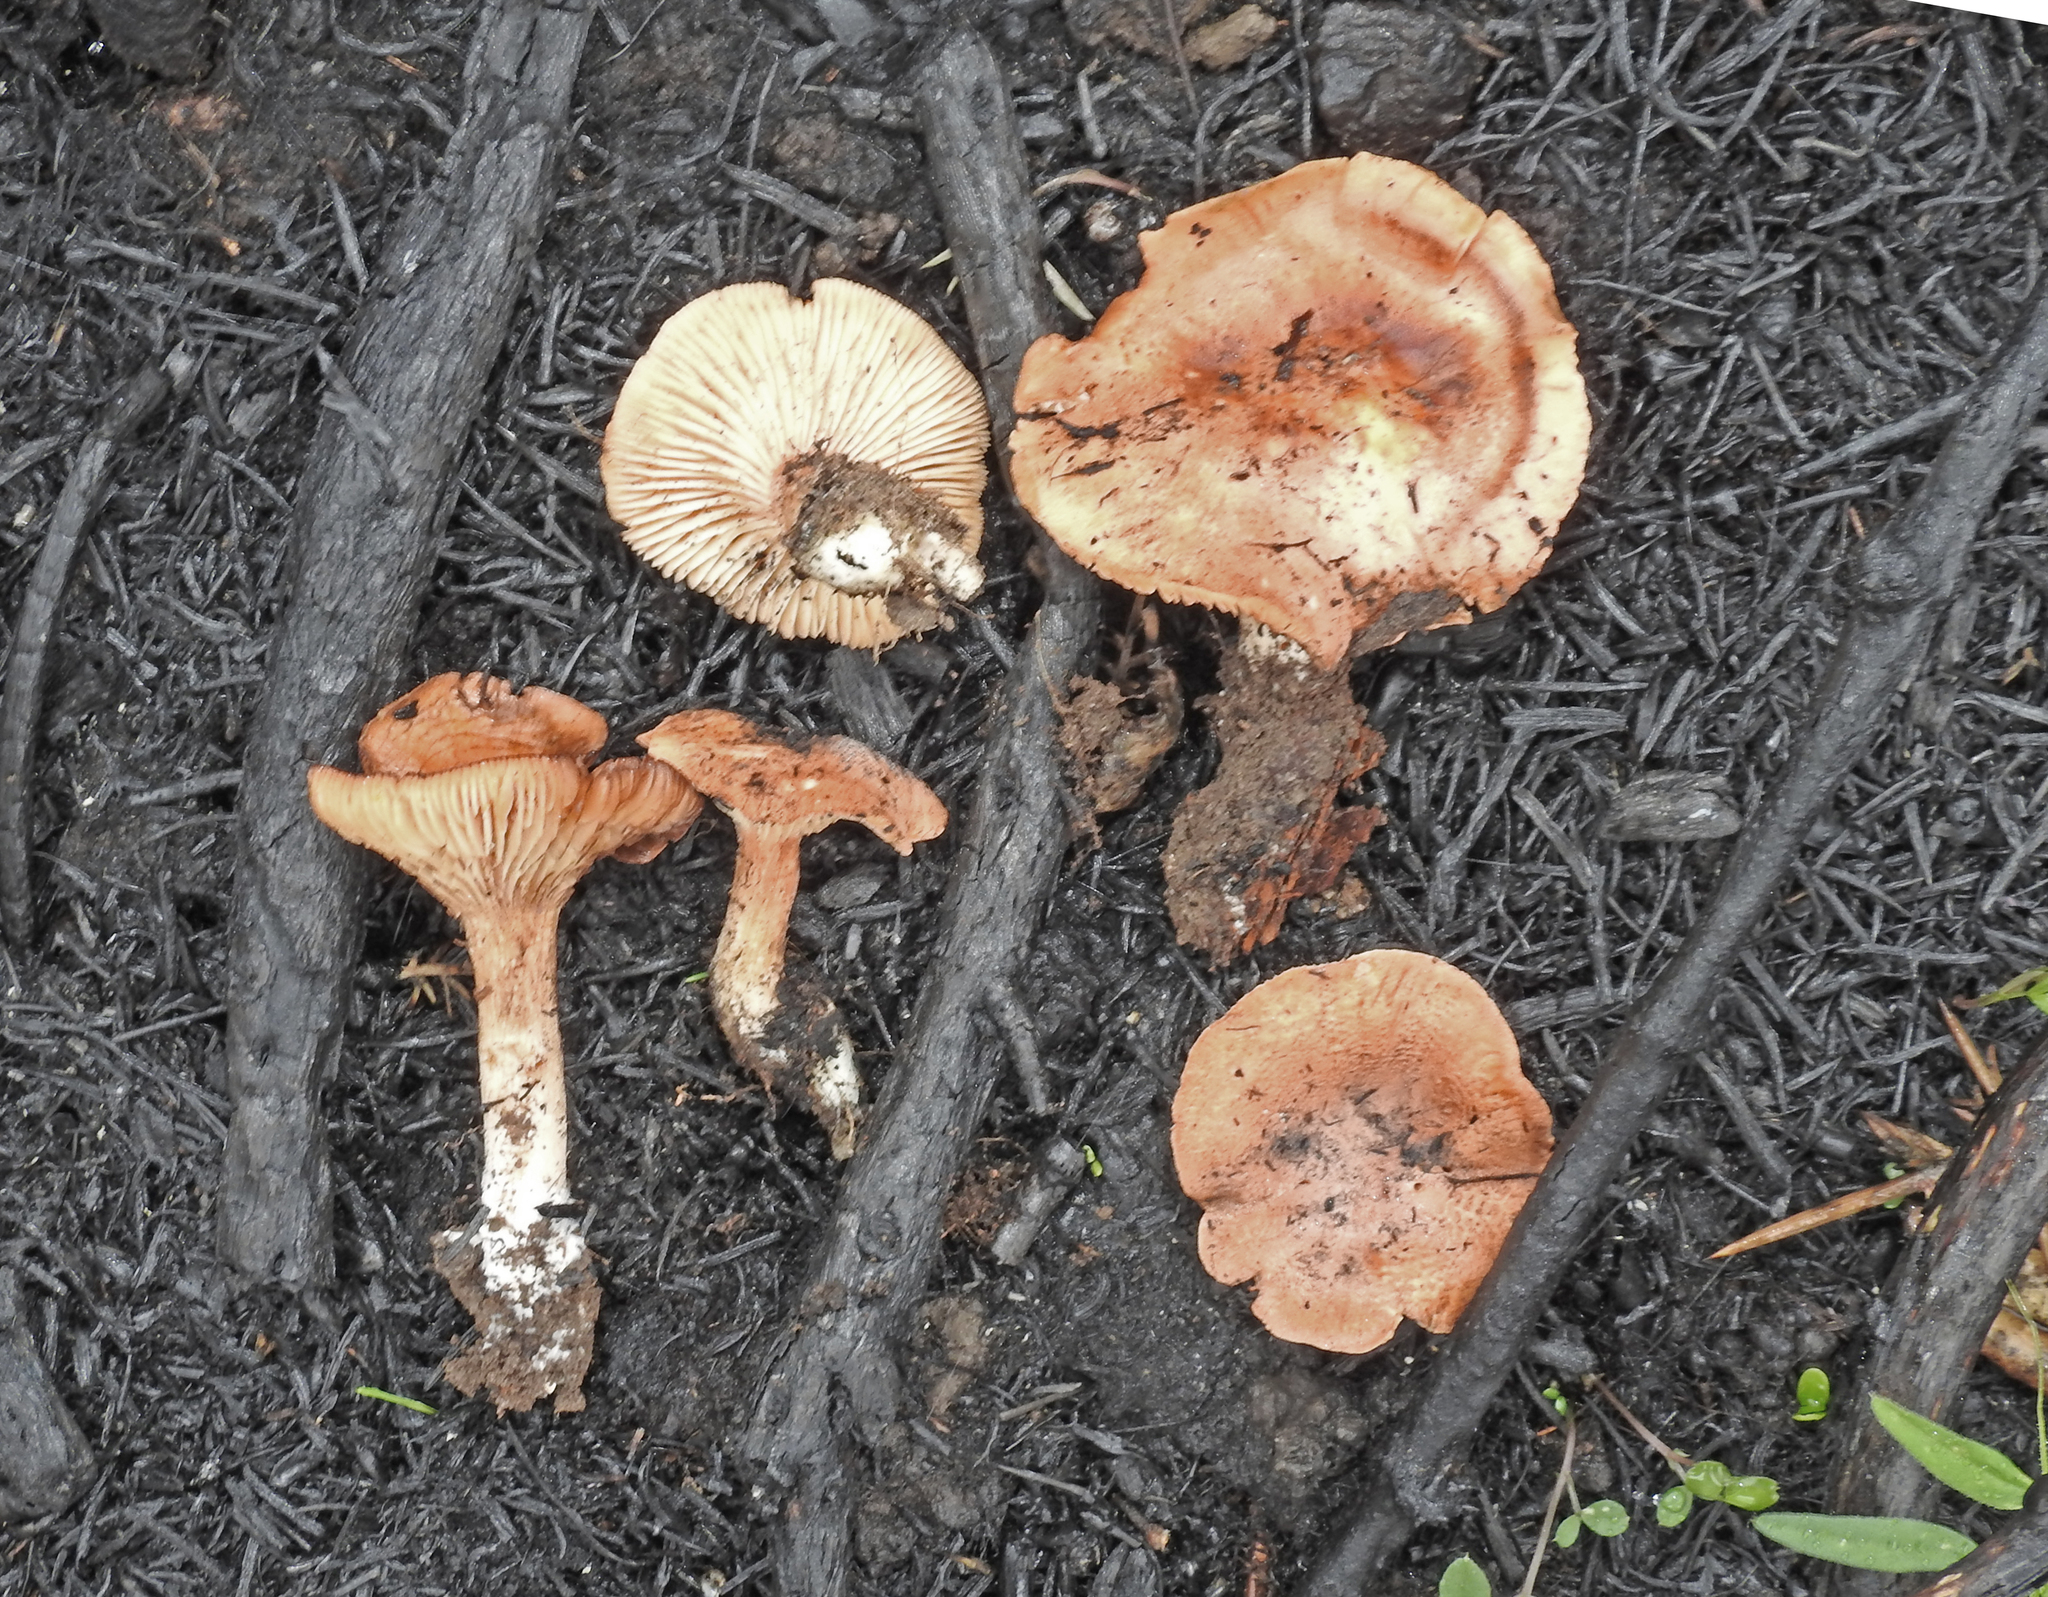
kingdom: Fungi
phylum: Basidiomycota
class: Agaricomycetes
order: Agaricales
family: Pseudoclitocybaceae
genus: Bonomyces
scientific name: Bonomyces
